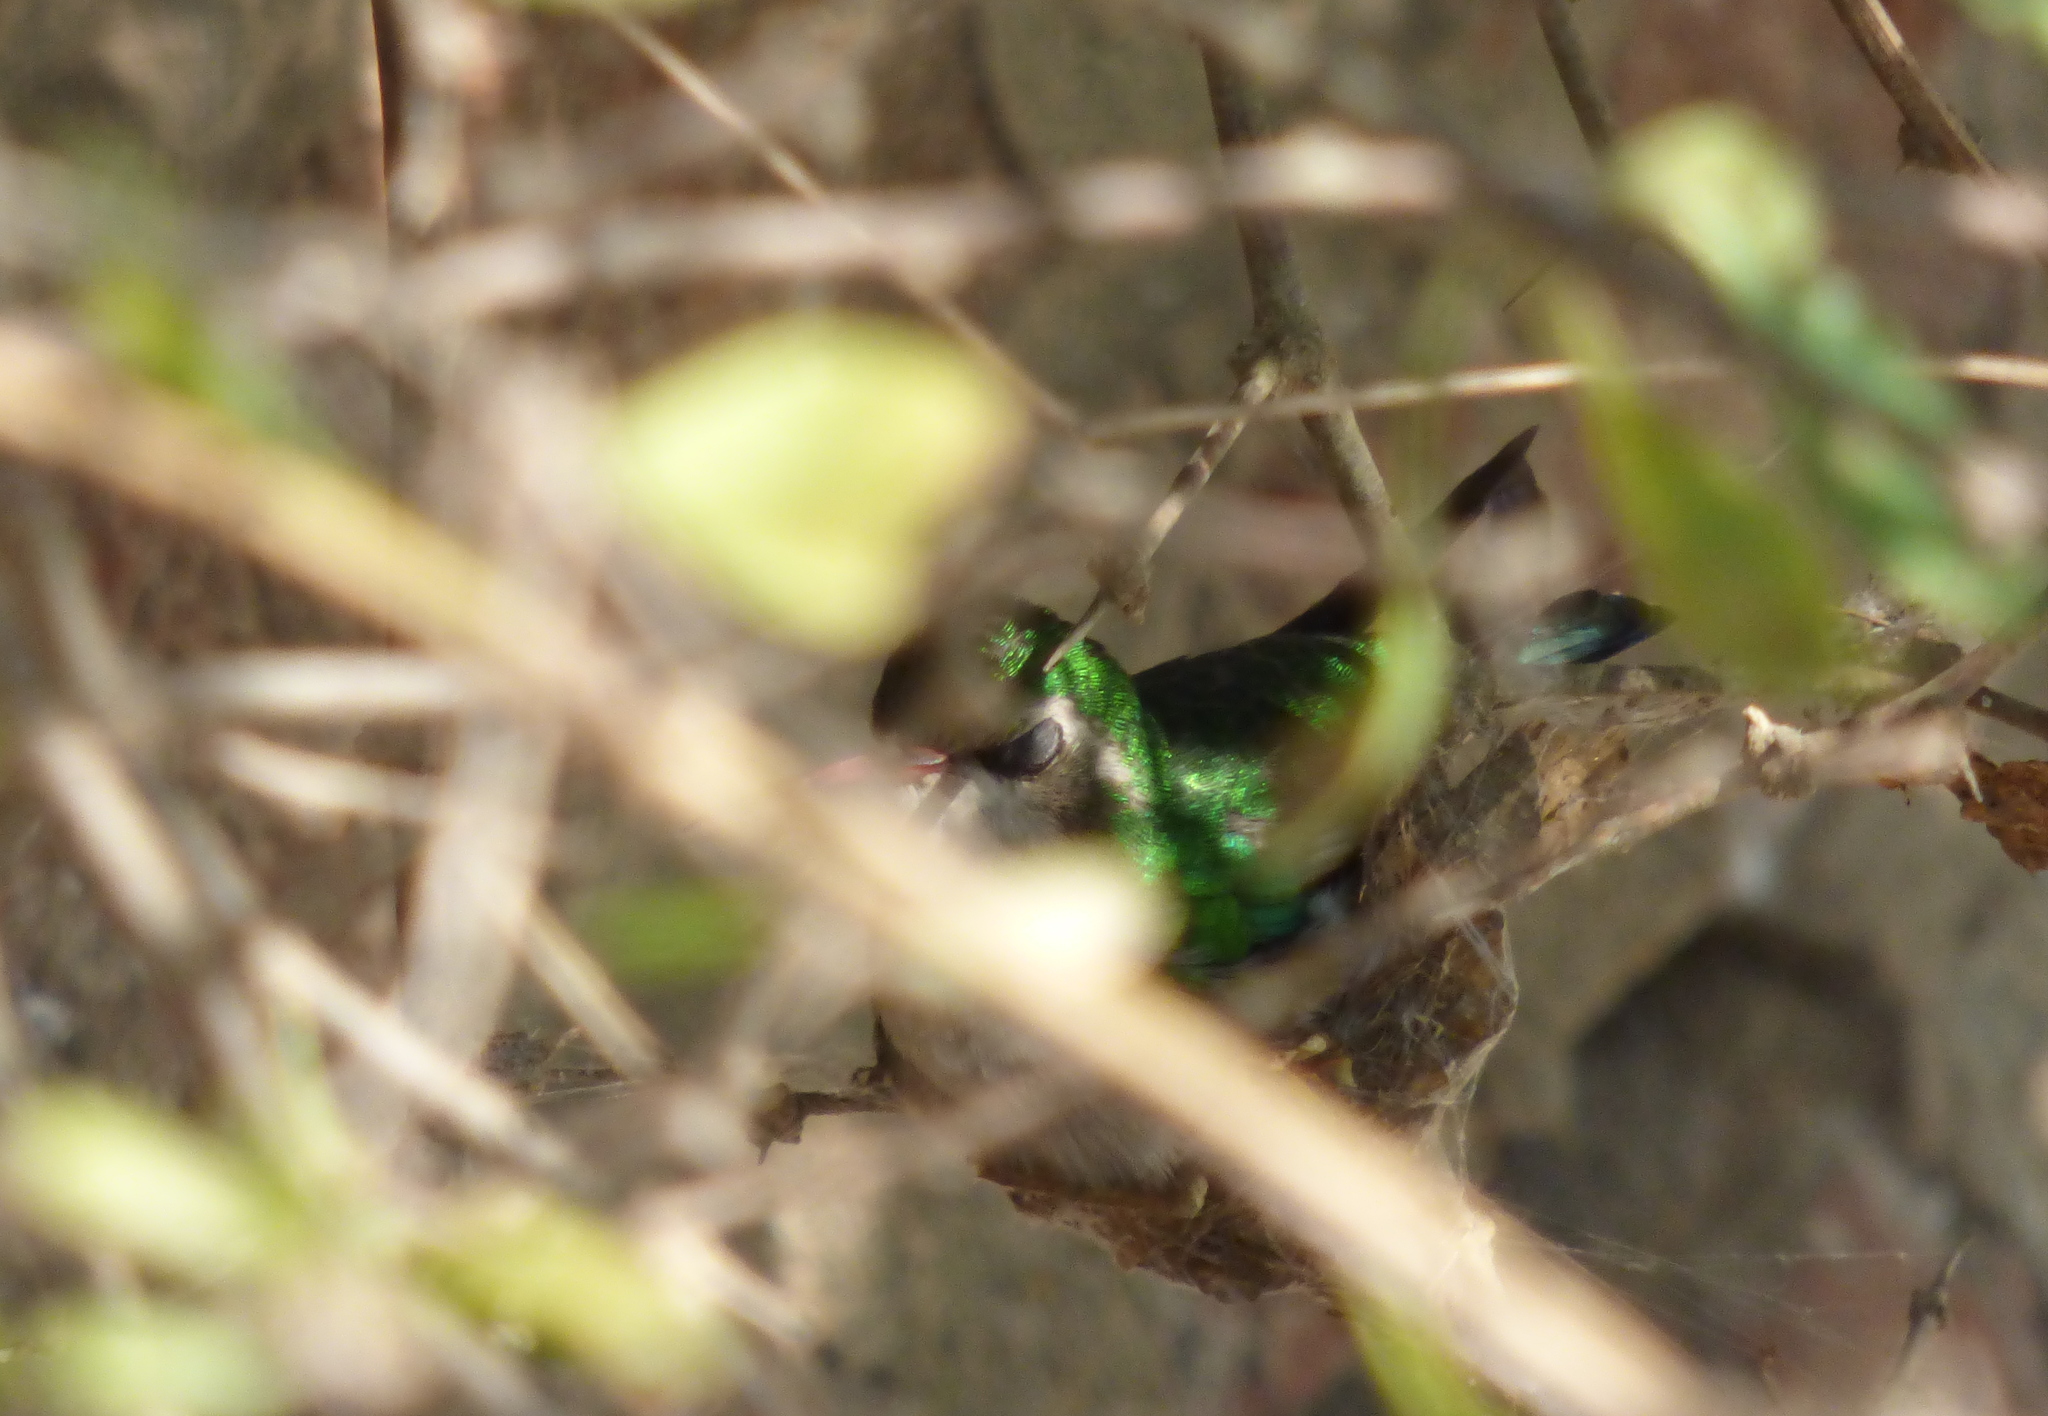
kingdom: Animalia
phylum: Chordata
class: Aves
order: Apodiformes
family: Trochilidae
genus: Chlorostilbon
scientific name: Chlorostilbon lucidus
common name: Glittering-bellied emerald
